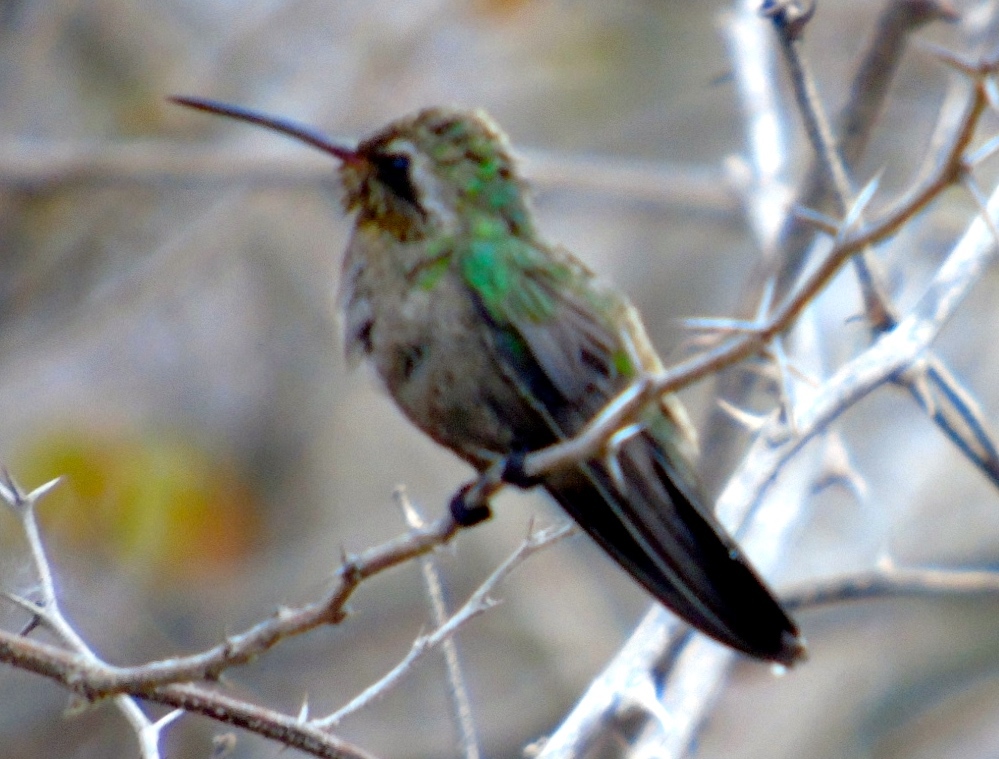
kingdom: Animalia
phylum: Chordata
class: Aves
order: Apodiformes
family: Trochilidae
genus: Cynanthus
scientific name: Cynanthus latirostris
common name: Broad-billed hummingbird
